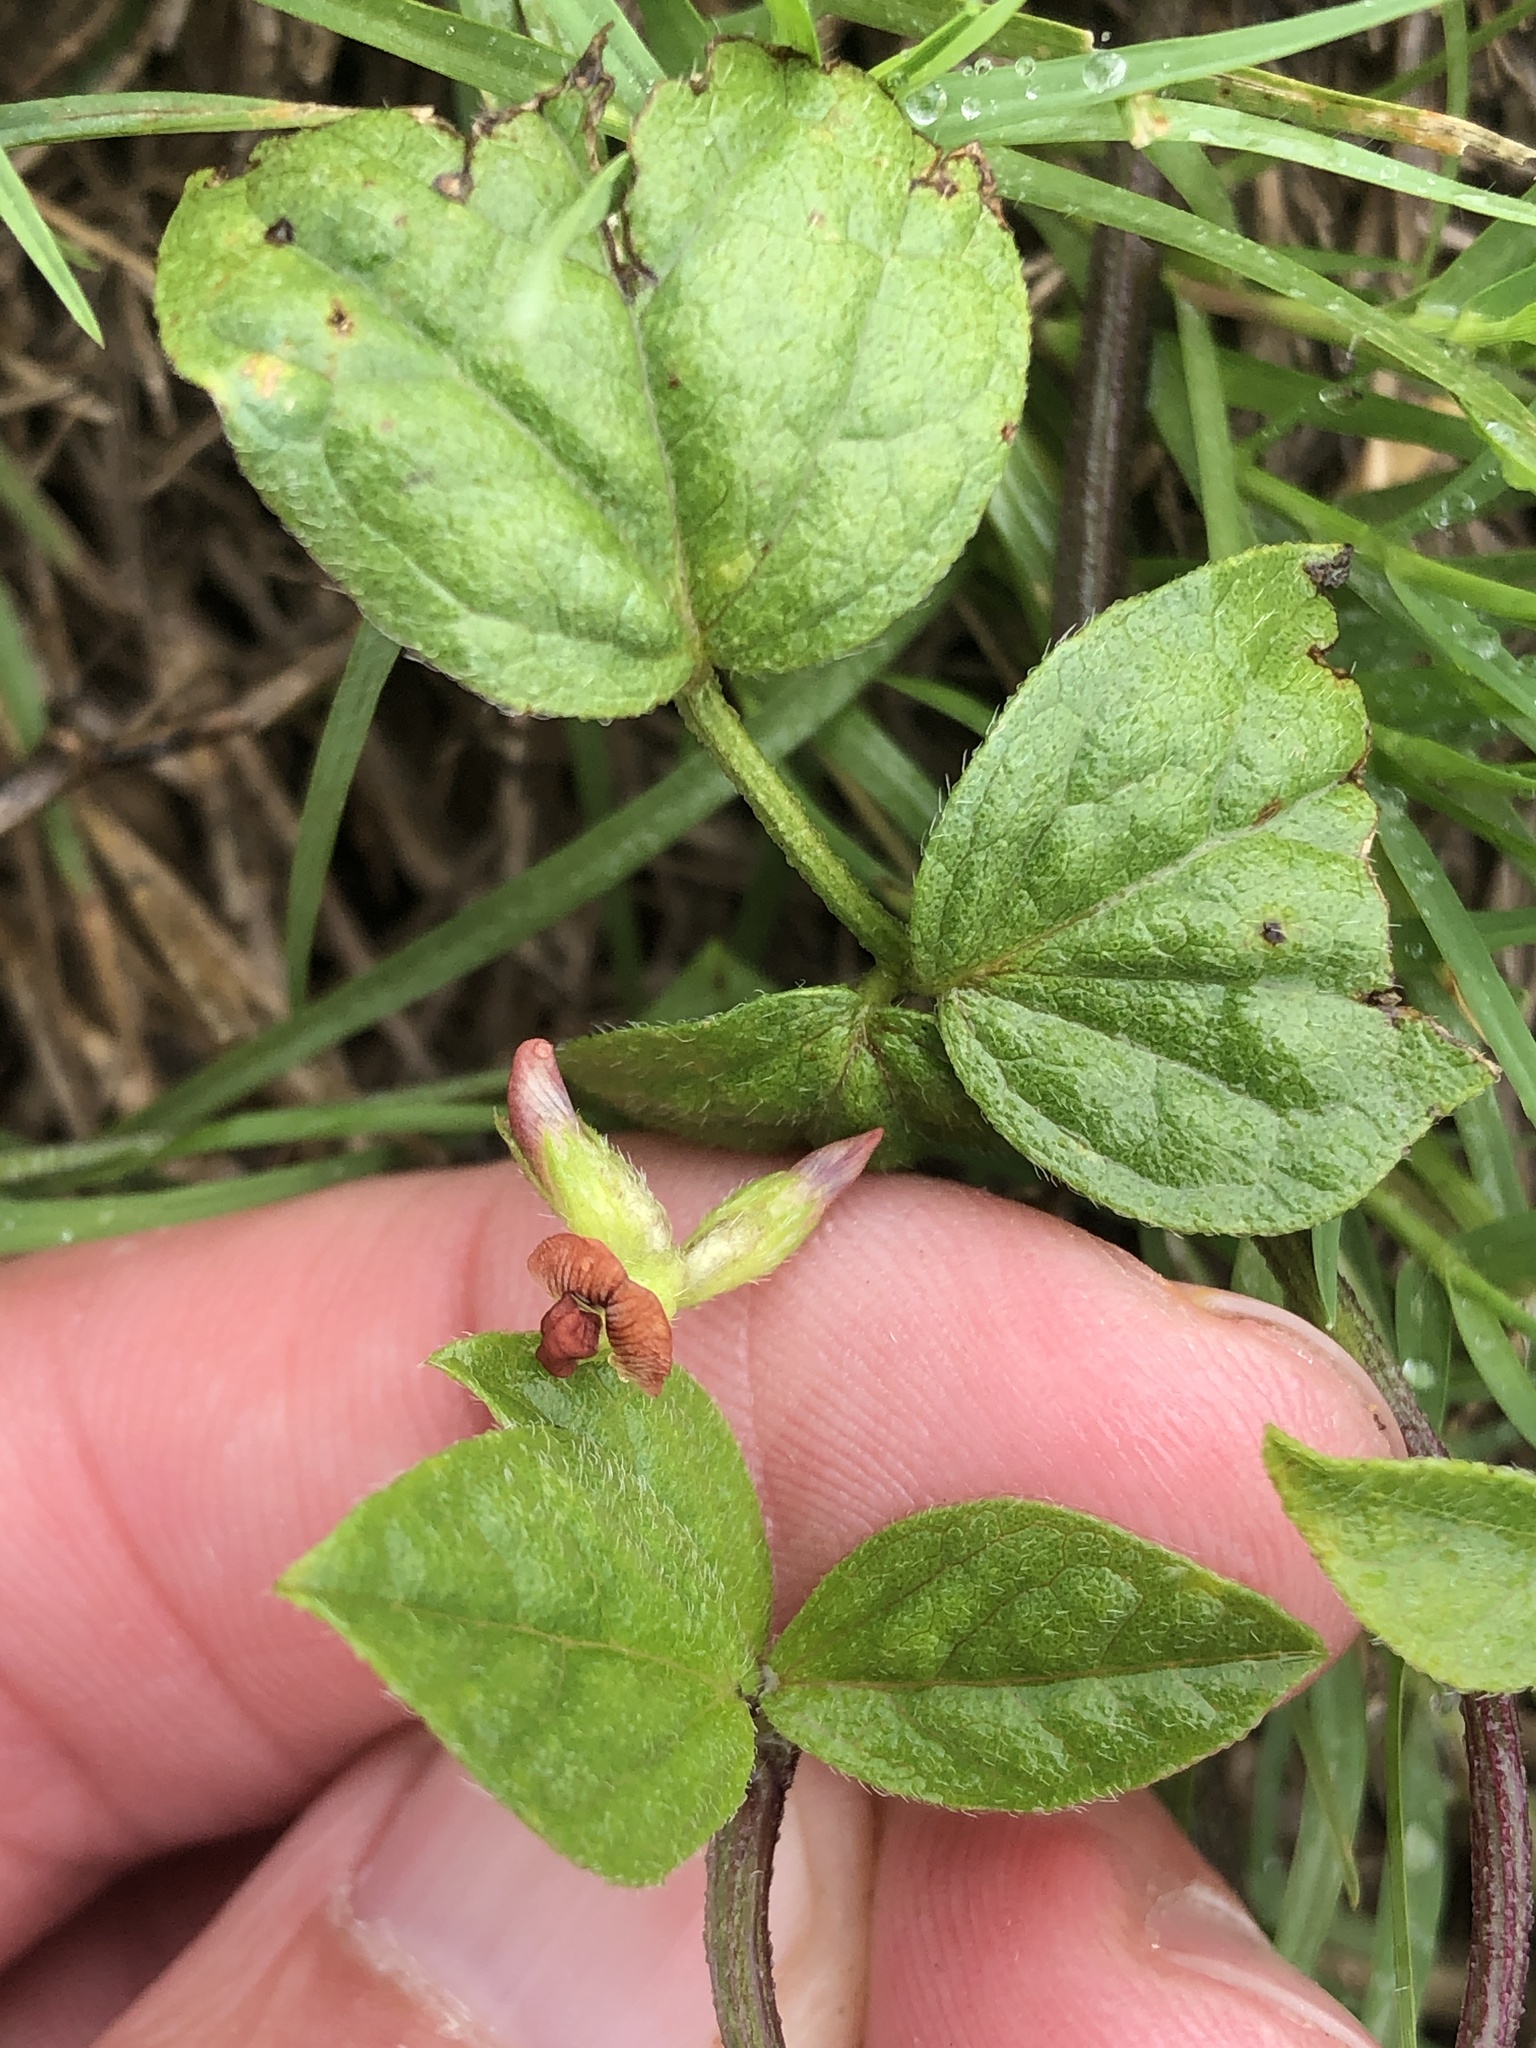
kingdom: Plantae
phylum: Tracheophyta
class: Magnoliopsida
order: Fabales
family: Fabaceae
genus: Pediomelum
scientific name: Pediomelum rhombifolium
